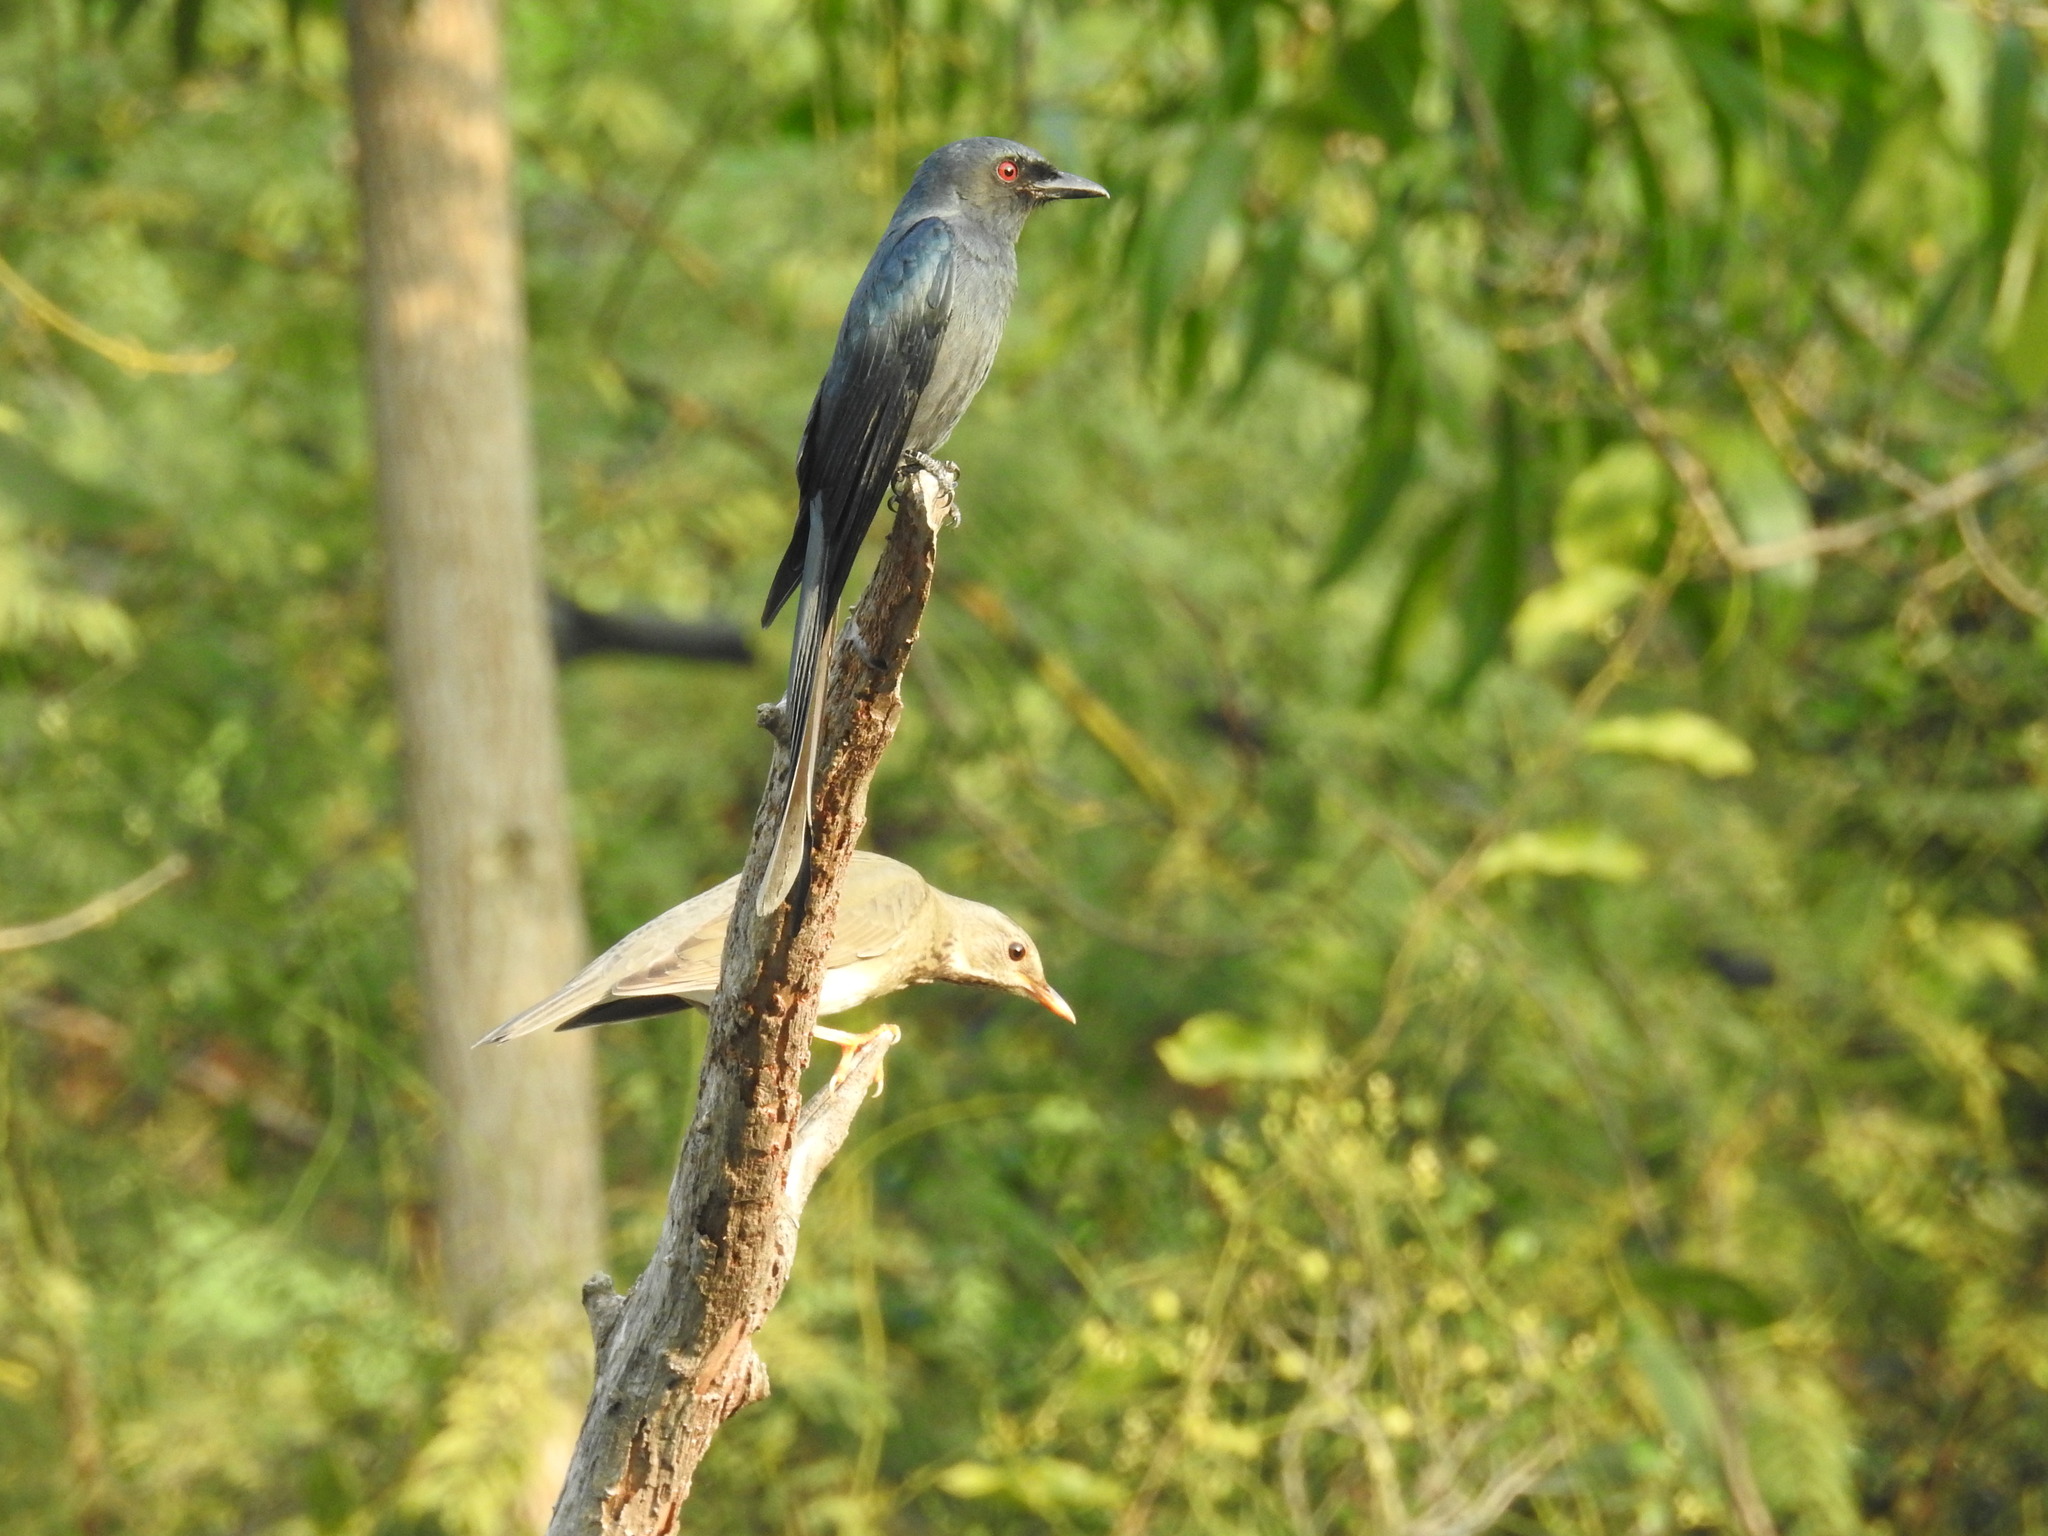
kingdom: Animalia
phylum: Chordata
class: Aves
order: Passeriformes
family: Dicruridae
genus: Dicrurus
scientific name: Dicrurus leucophaeus
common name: Ashy drongo
